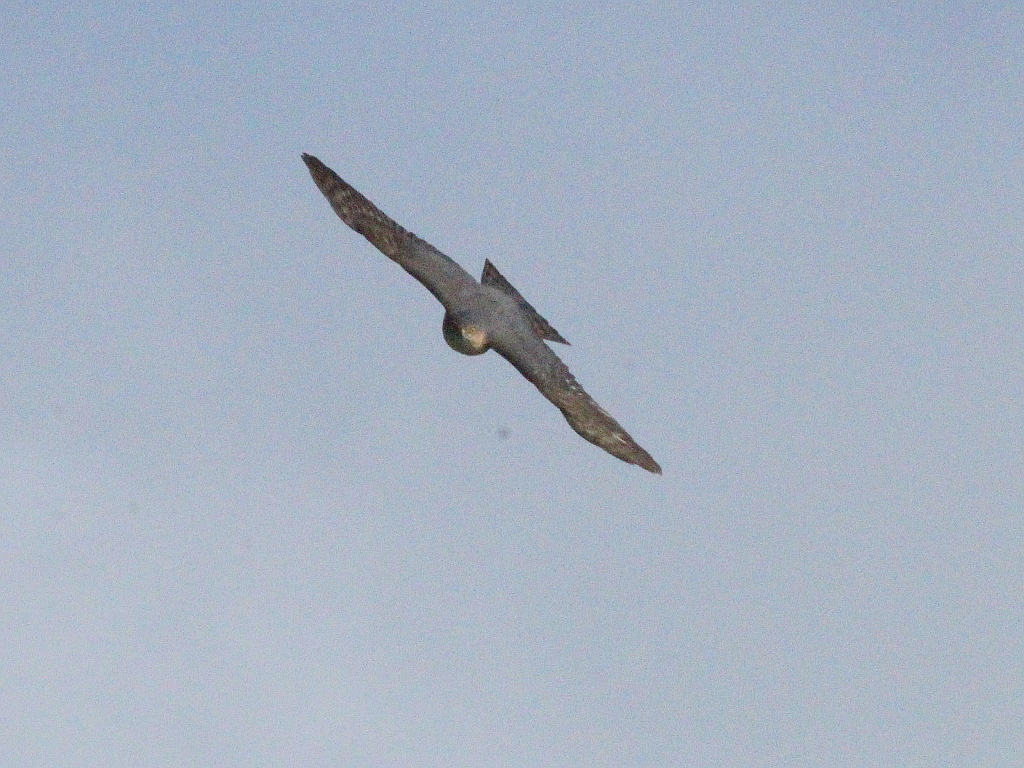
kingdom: Animalia
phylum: Chordata
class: Aves
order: Accipitriformes
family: Accipitridae
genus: Accipiter
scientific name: Accipiter nisus
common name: Eurasian sparrowhawk
